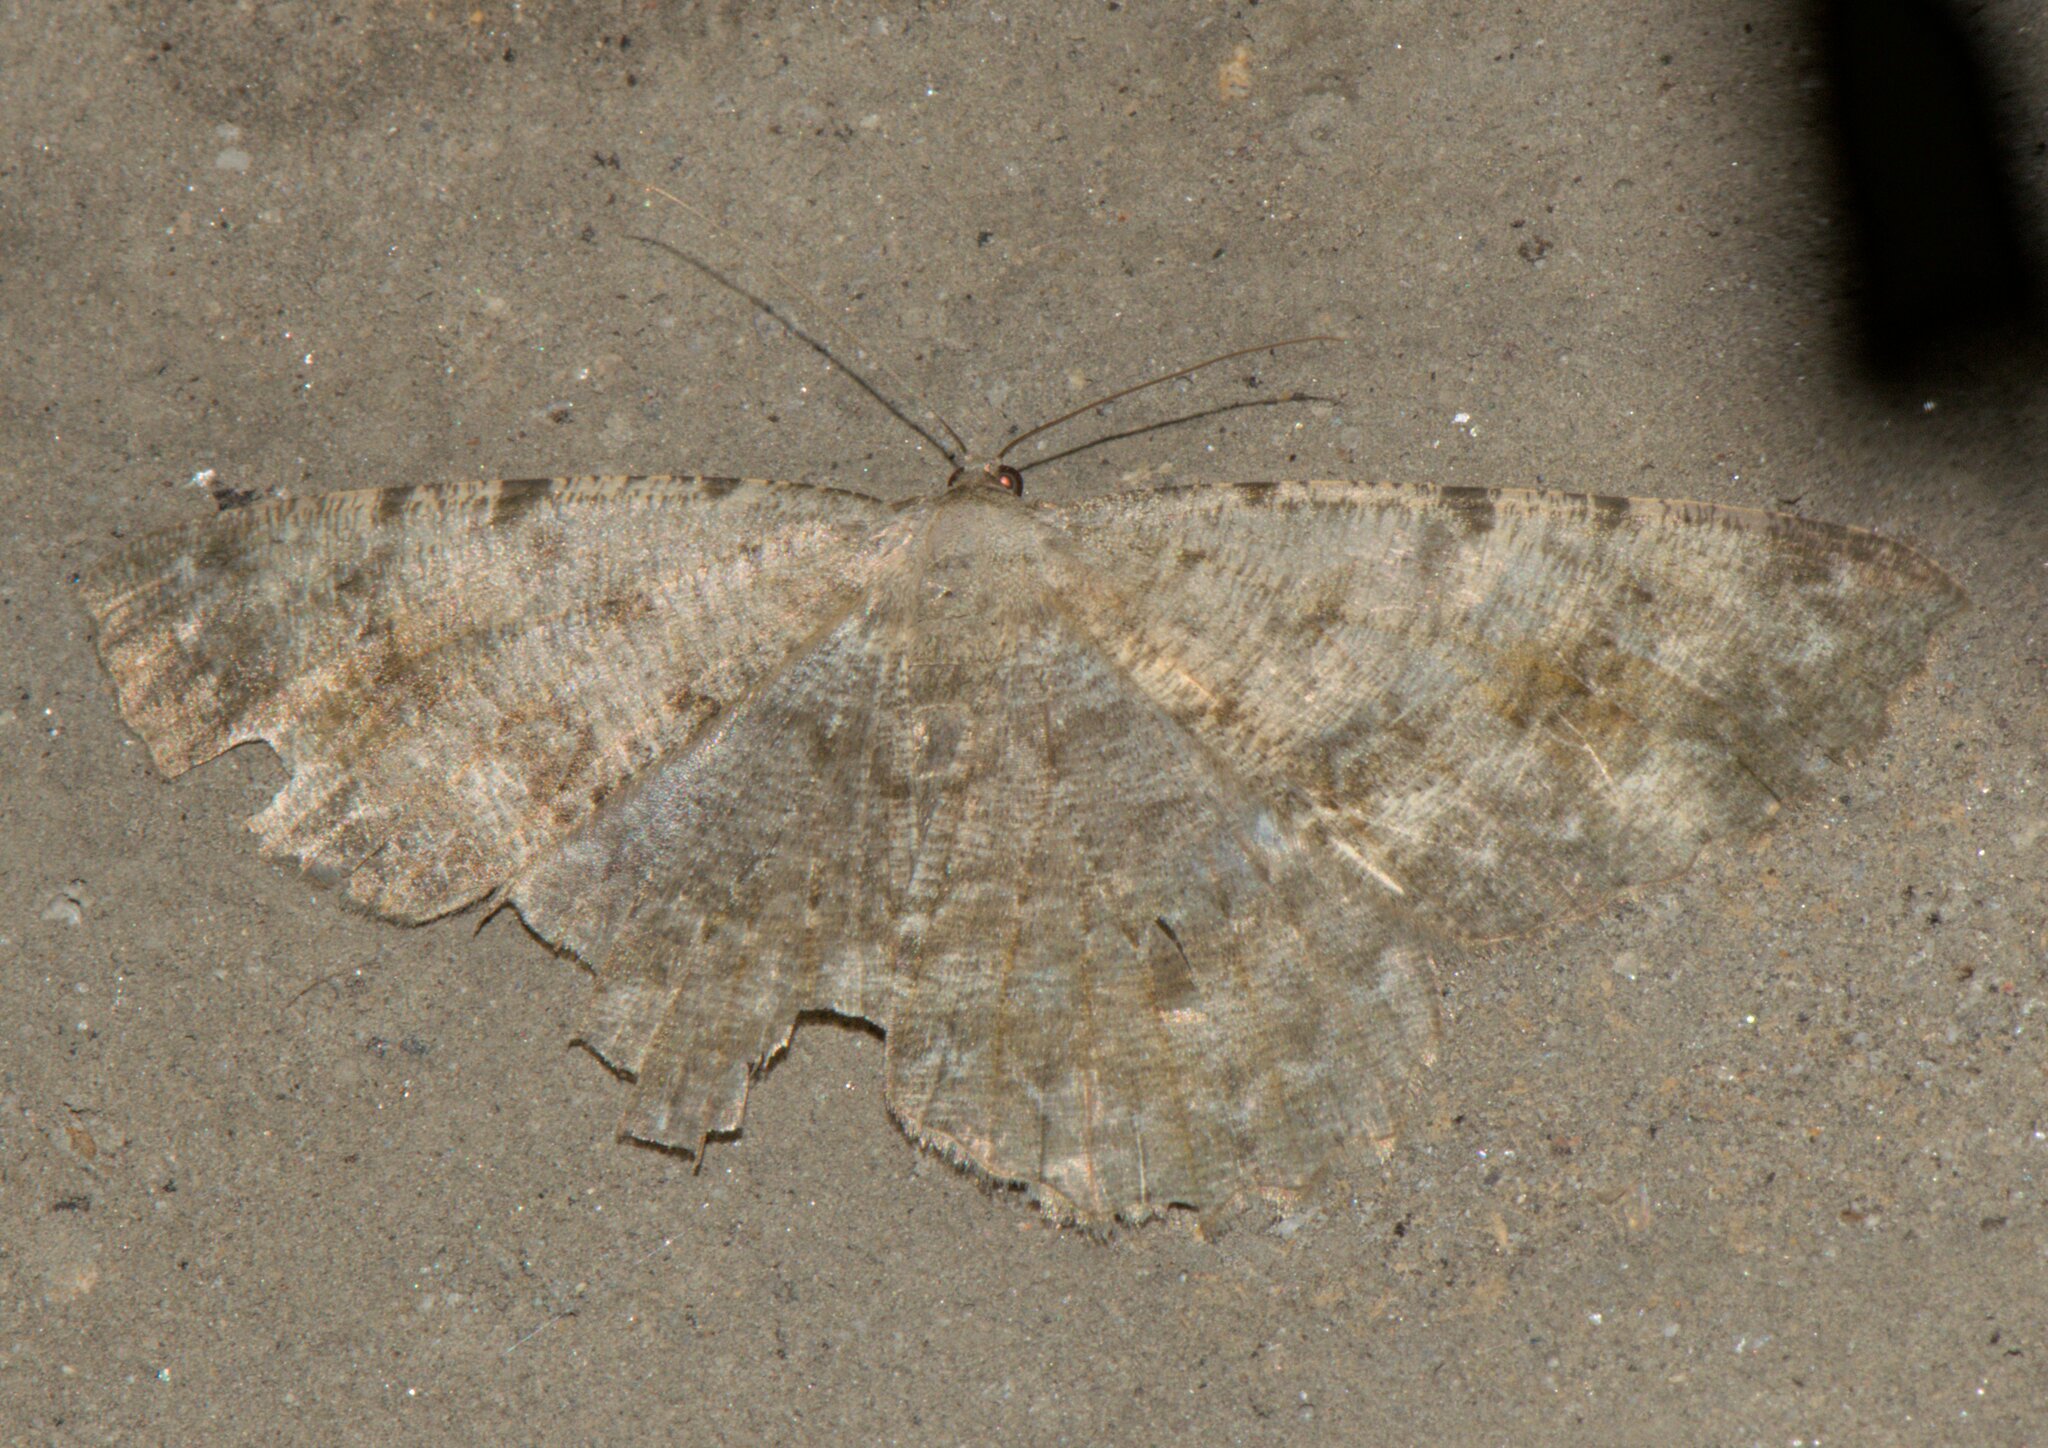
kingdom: Animalia
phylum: Arthropoda
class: Insecta
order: Lepidoptera
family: Geometridae
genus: Gnophos
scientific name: Gnophos accipitraria
